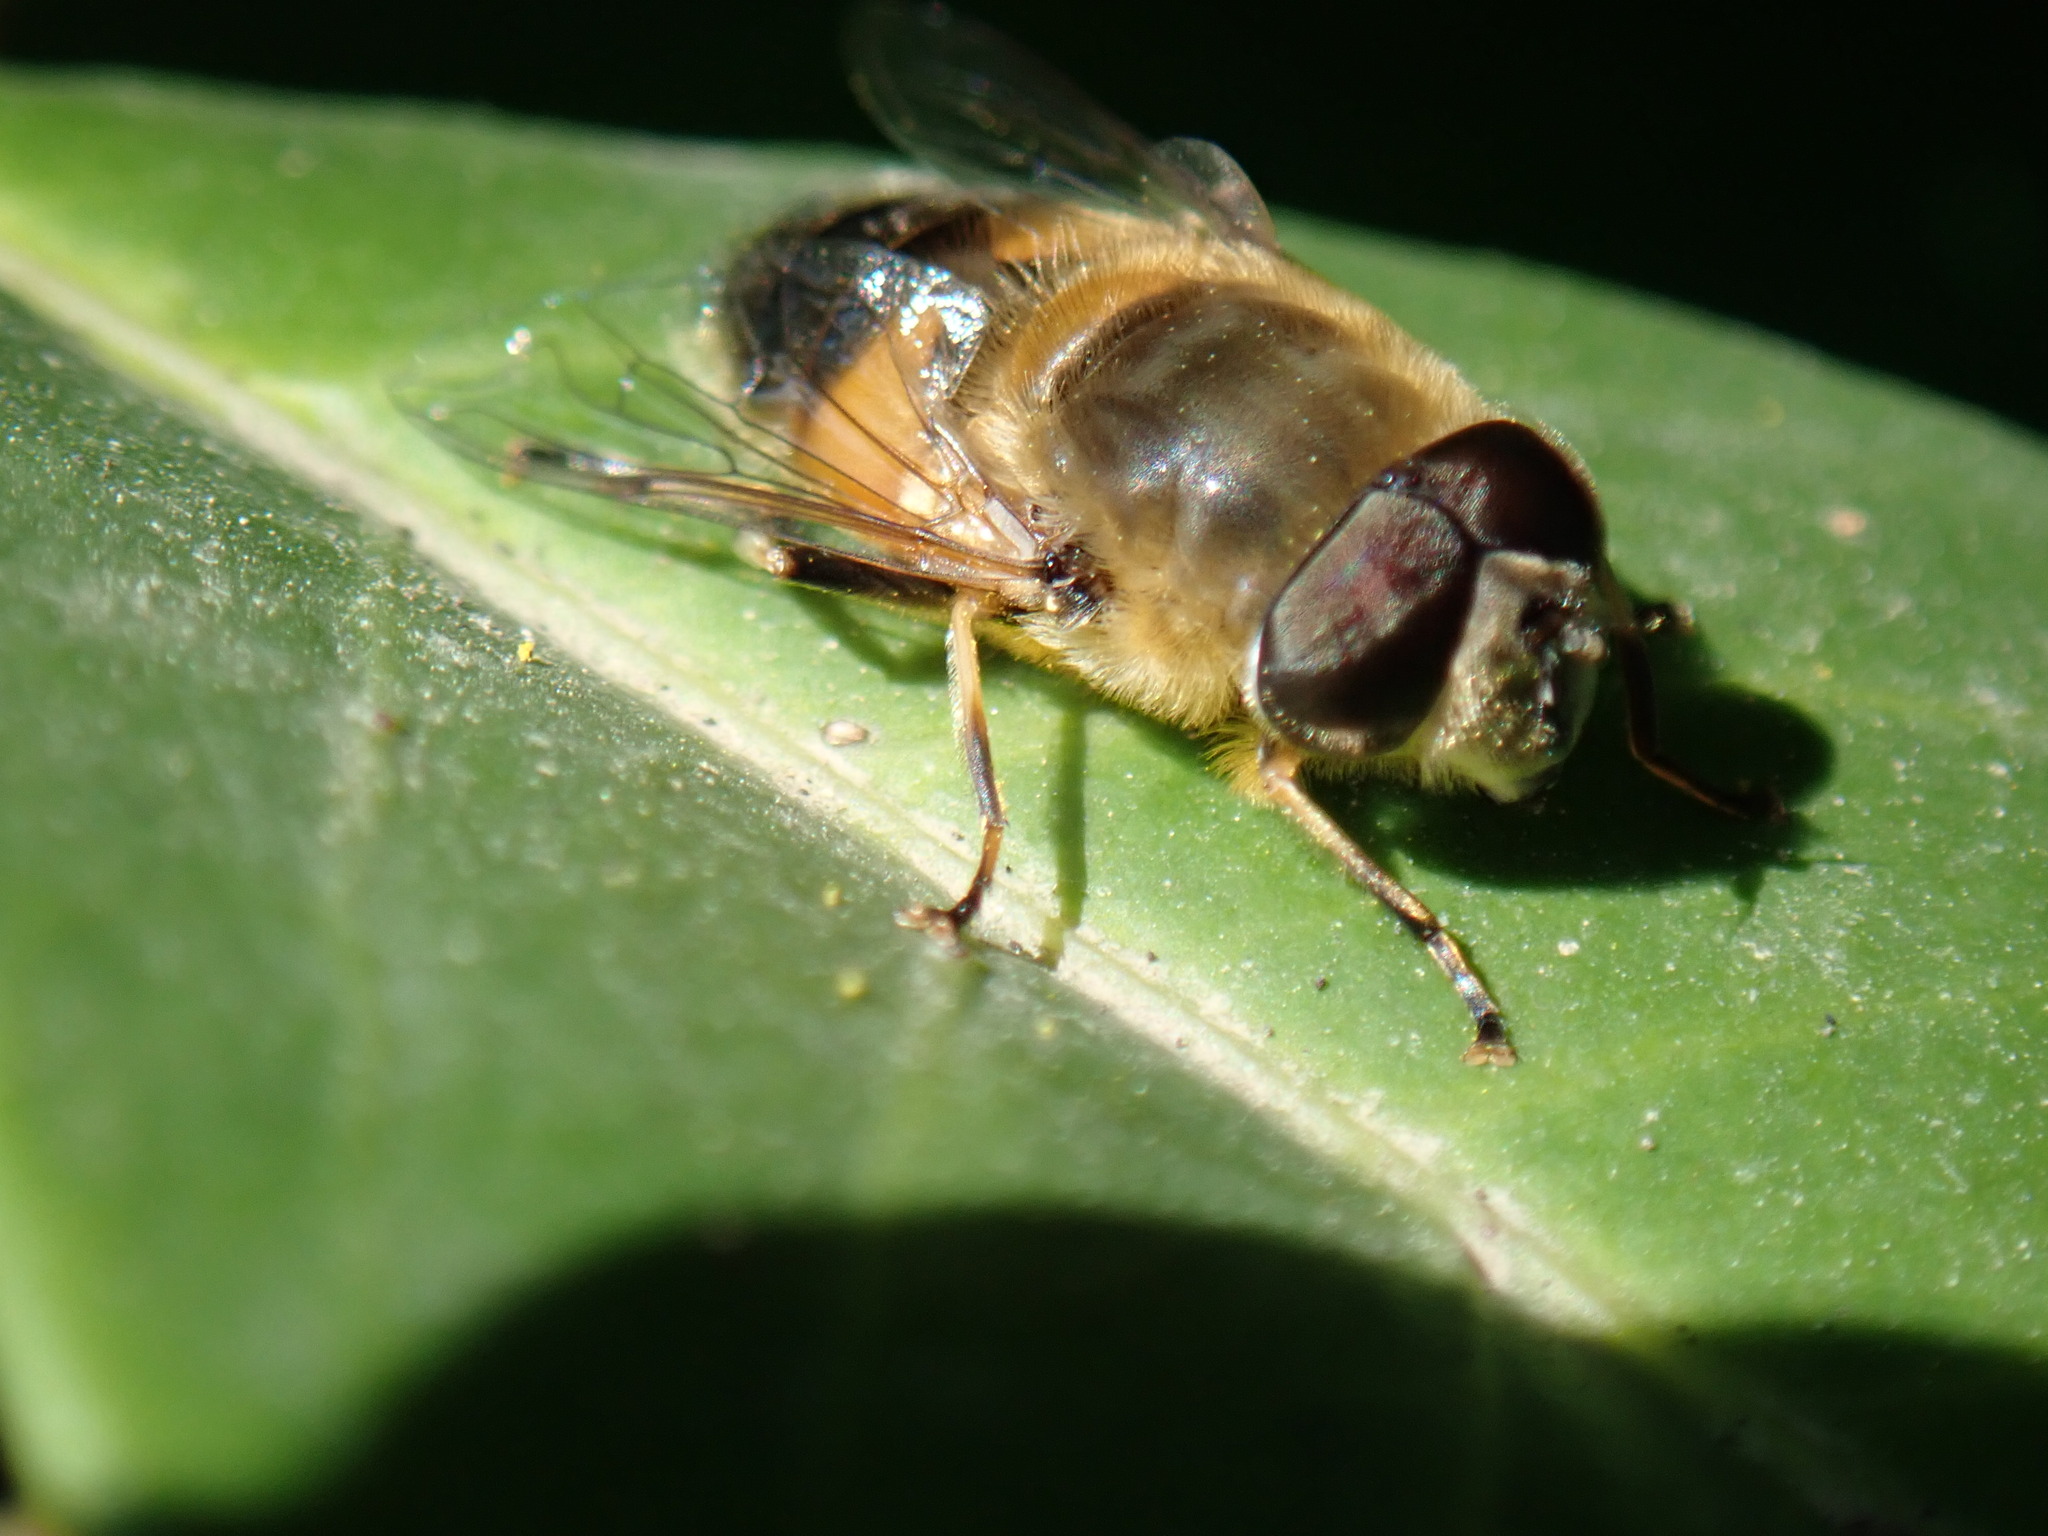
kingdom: Animalia
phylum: Arthropoda
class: Insecta
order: Diptera
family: Syrphidae
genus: Eristalis
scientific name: Eristalis pertinax
